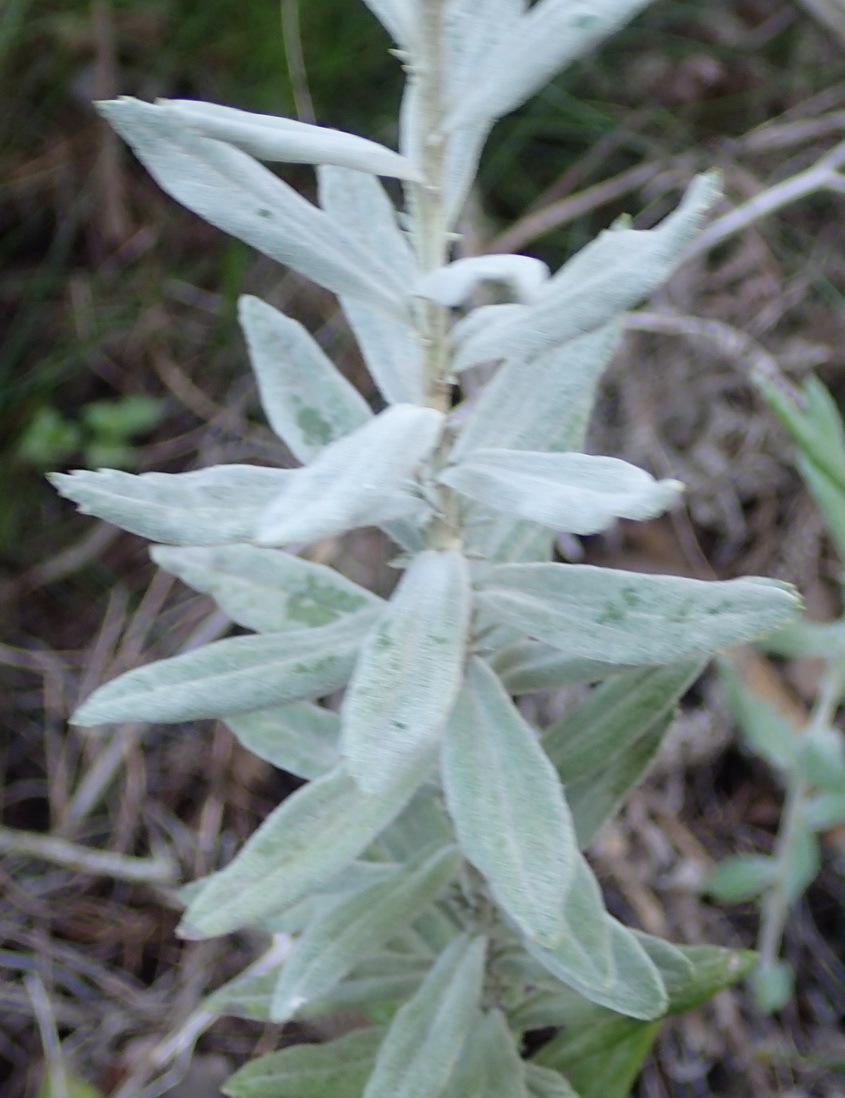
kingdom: Plantae
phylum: Tracheophyta
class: Magnoliopsida
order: Asterales
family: Asteraceae
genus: Senecio
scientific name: Senecio lineatus
